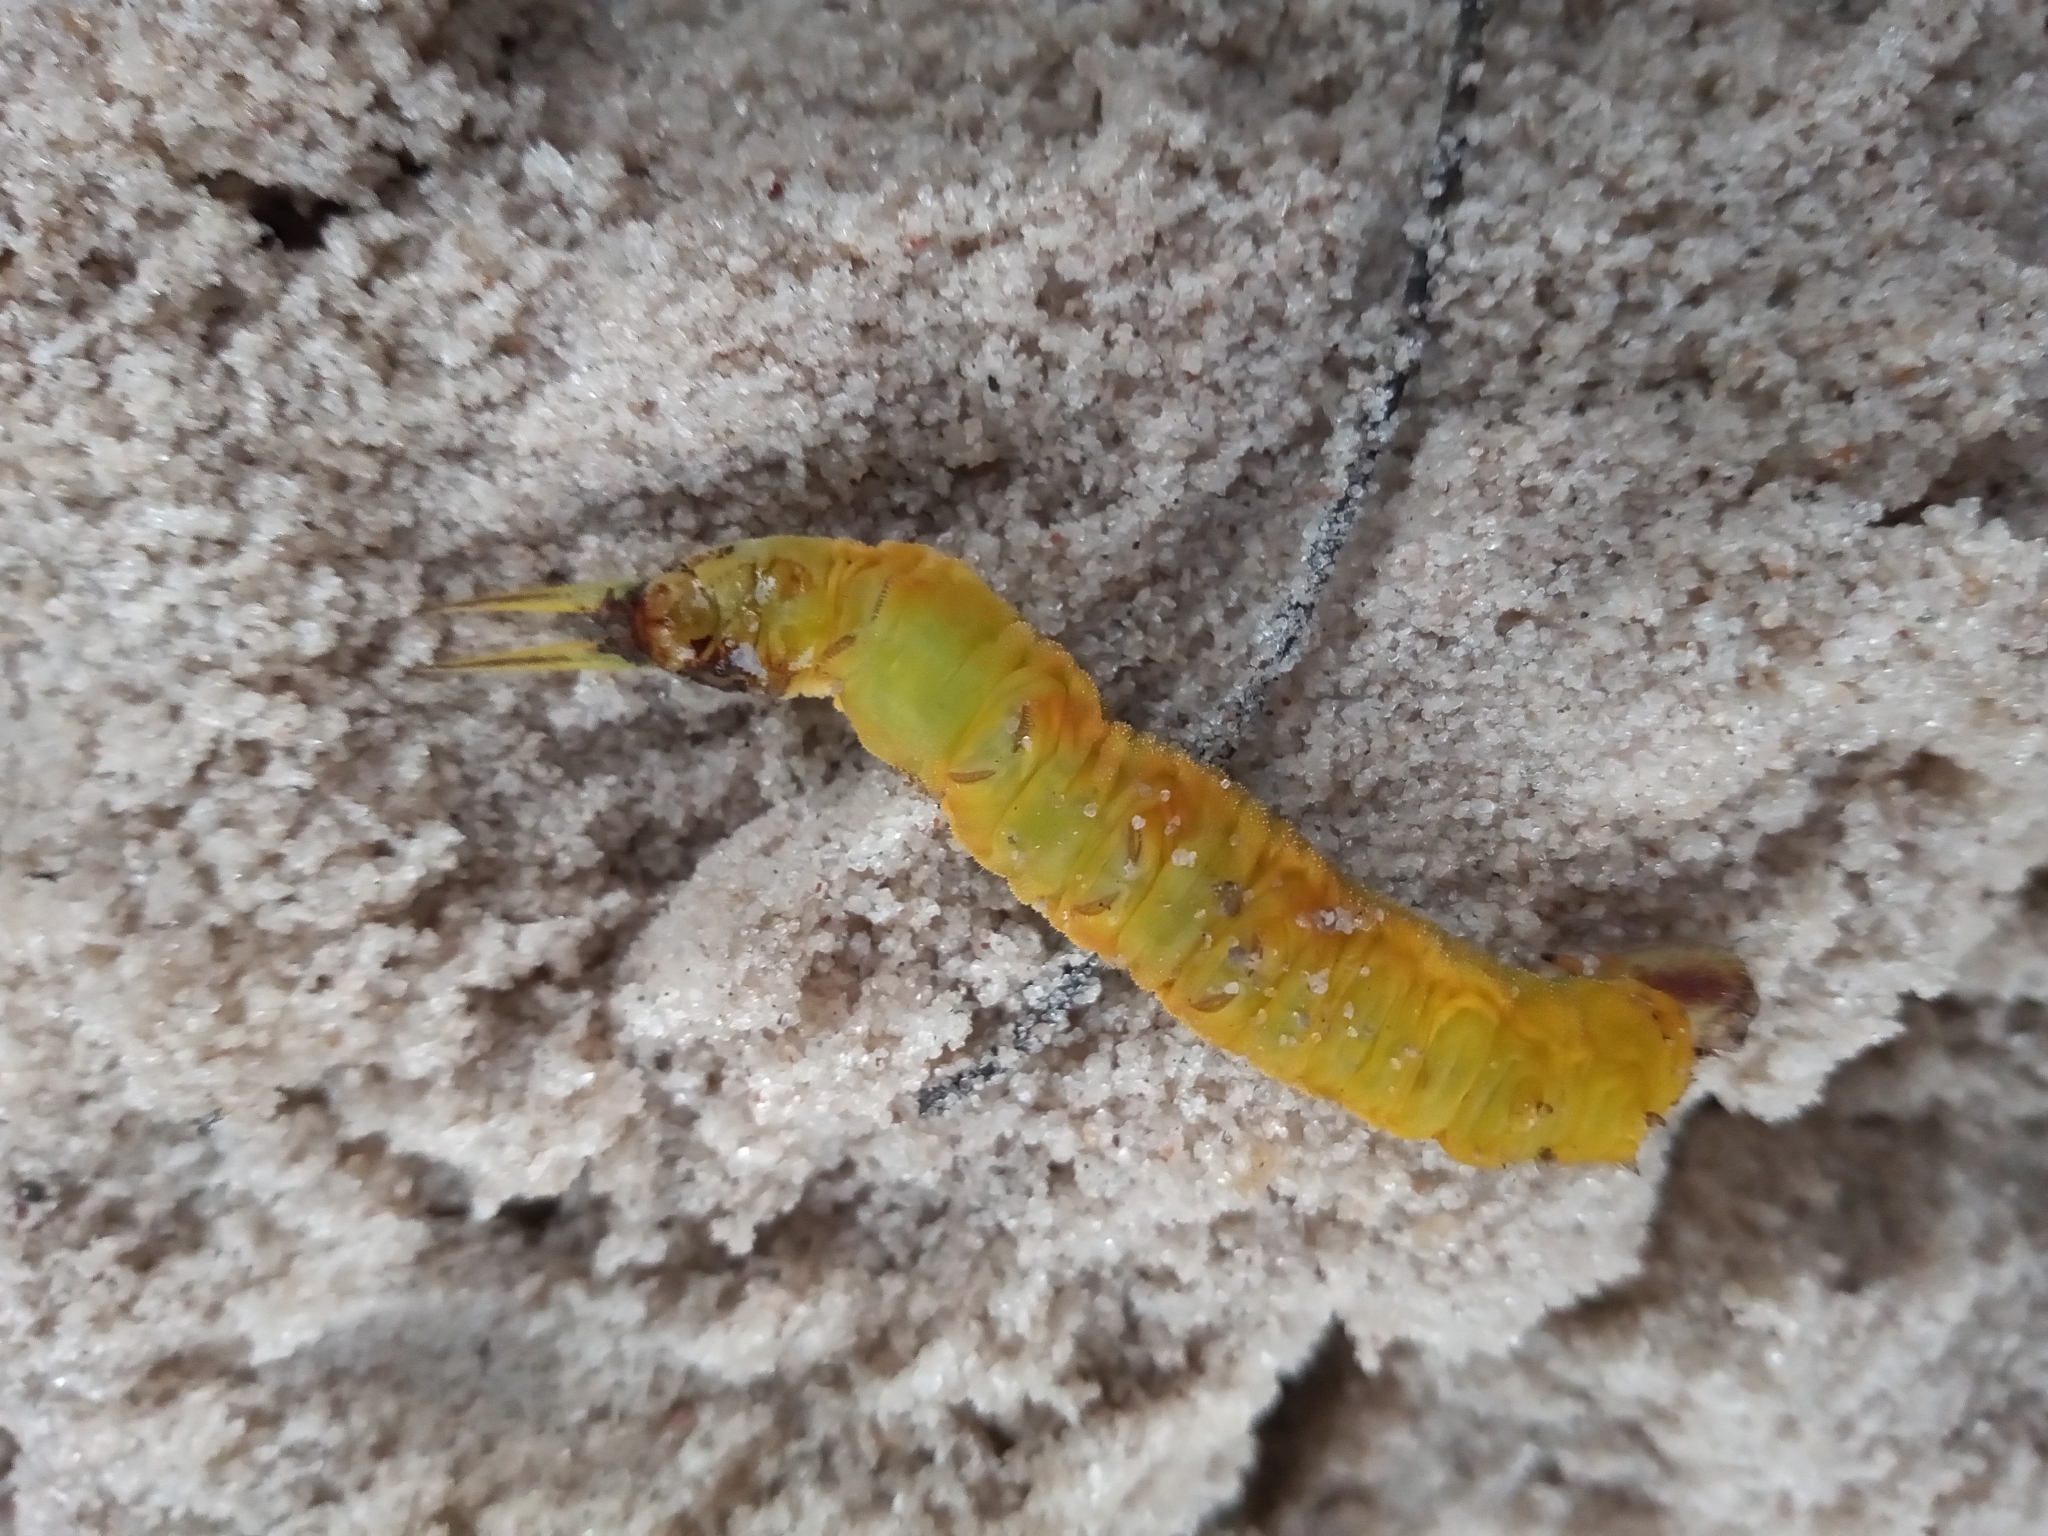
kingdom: Animalia
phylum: Arthropoda
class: Insecta
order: Lepidoptera
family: Nymphalidae
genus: Opsiphanes
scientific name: Opsiphanes invirae
